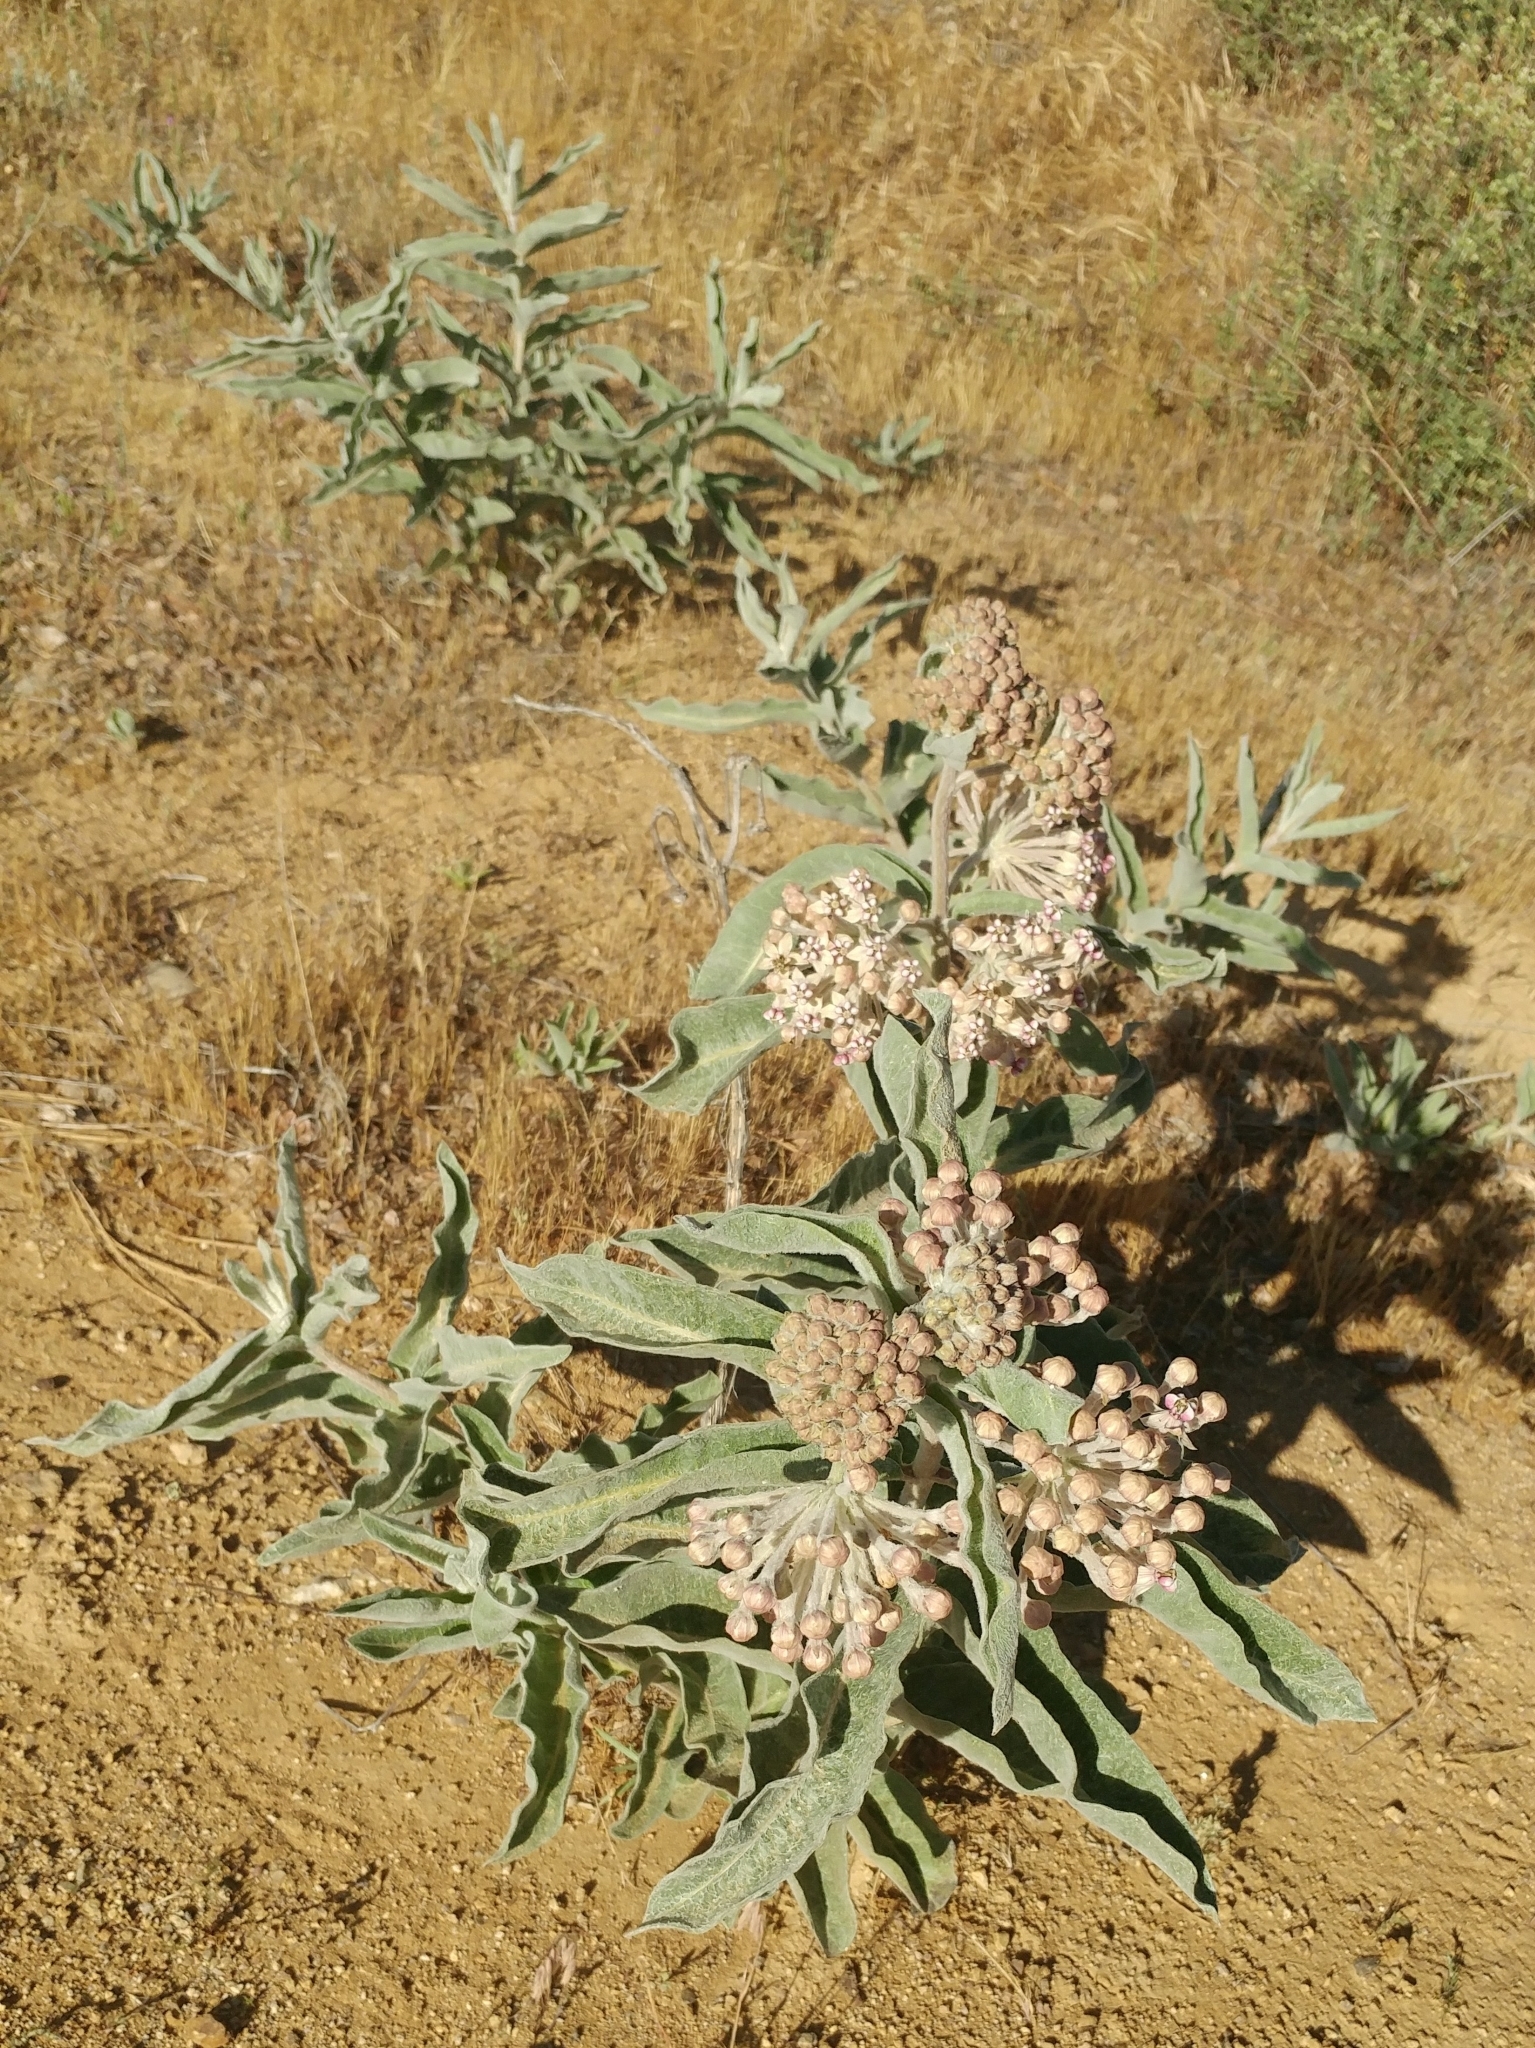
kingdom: Plantae
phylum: Tracheophyta
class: Magnoliopsida
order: Gentianales
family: Apocynaceae
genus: Asclepias
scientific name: Asclepias eriocarpa
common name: Indian milkweed
